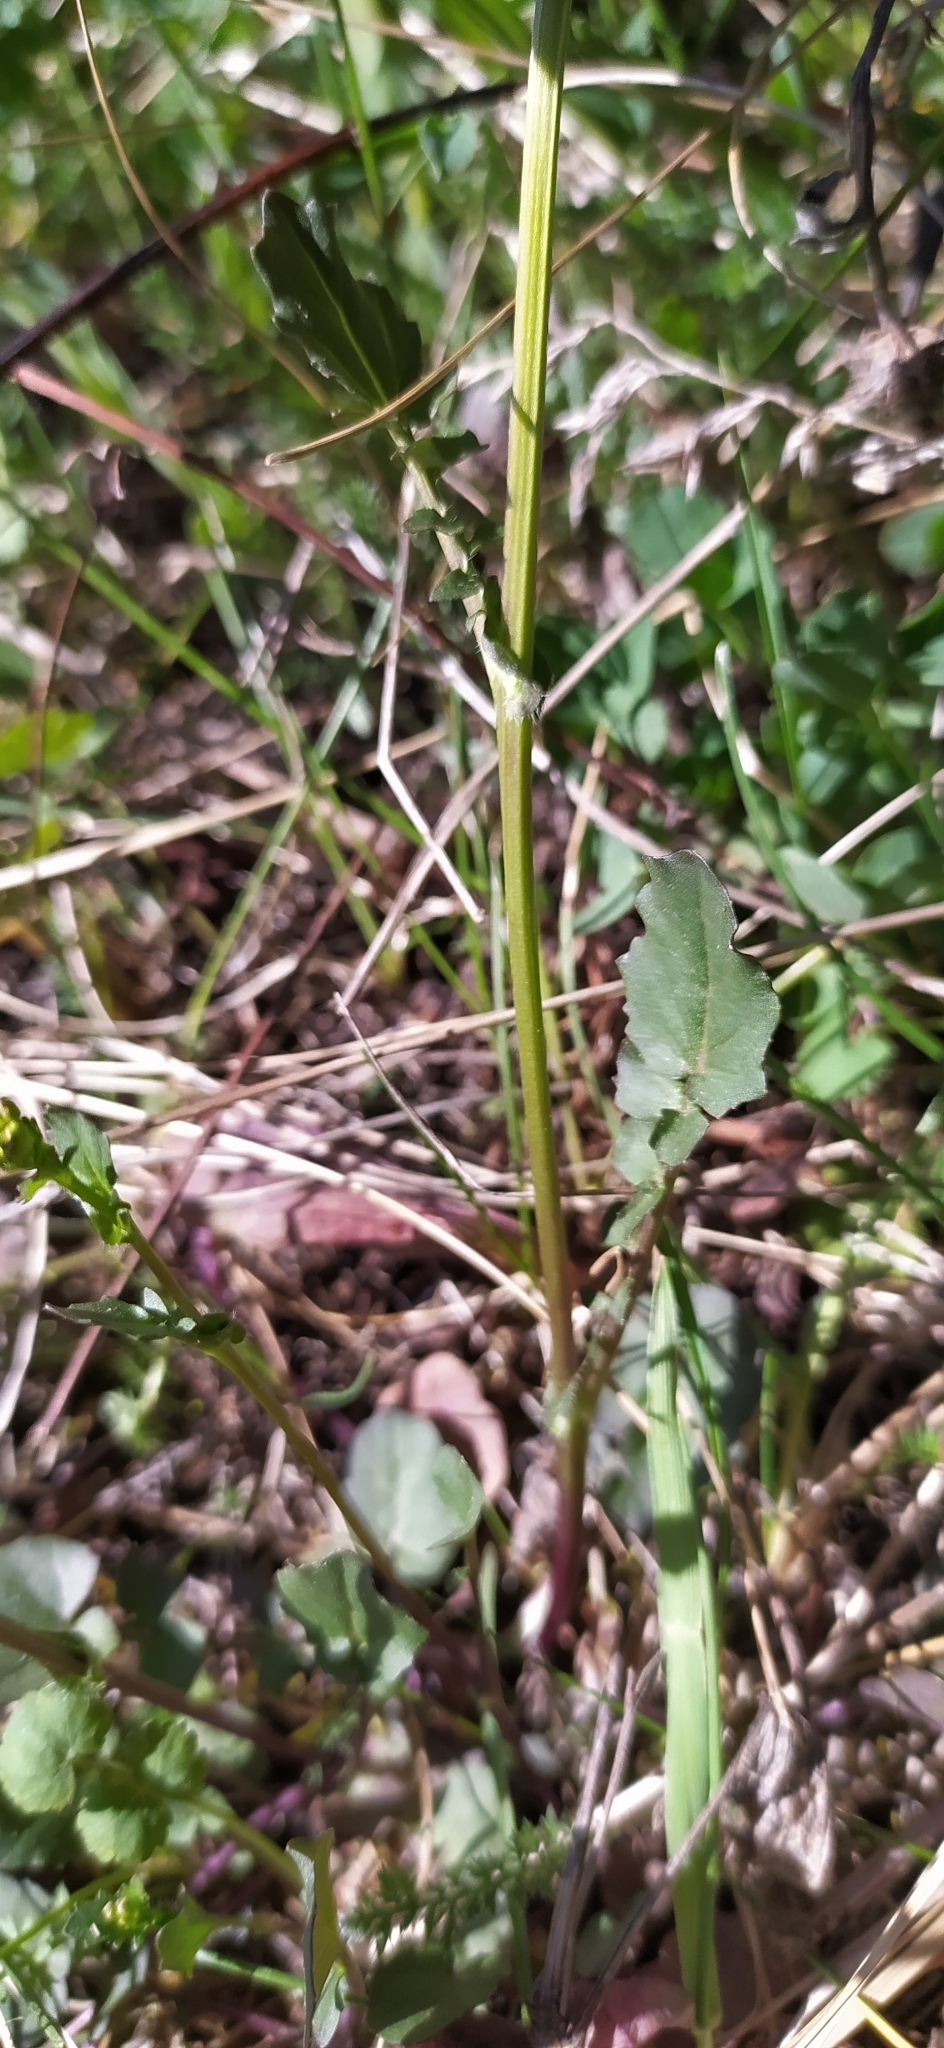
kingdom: Plantae
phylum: Tracheophyta
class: Magnoliopsida
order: Brassicales
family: Brassicaceae
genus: Barbarea
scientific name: Barbarea vulgaris
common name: Cressy-greens
